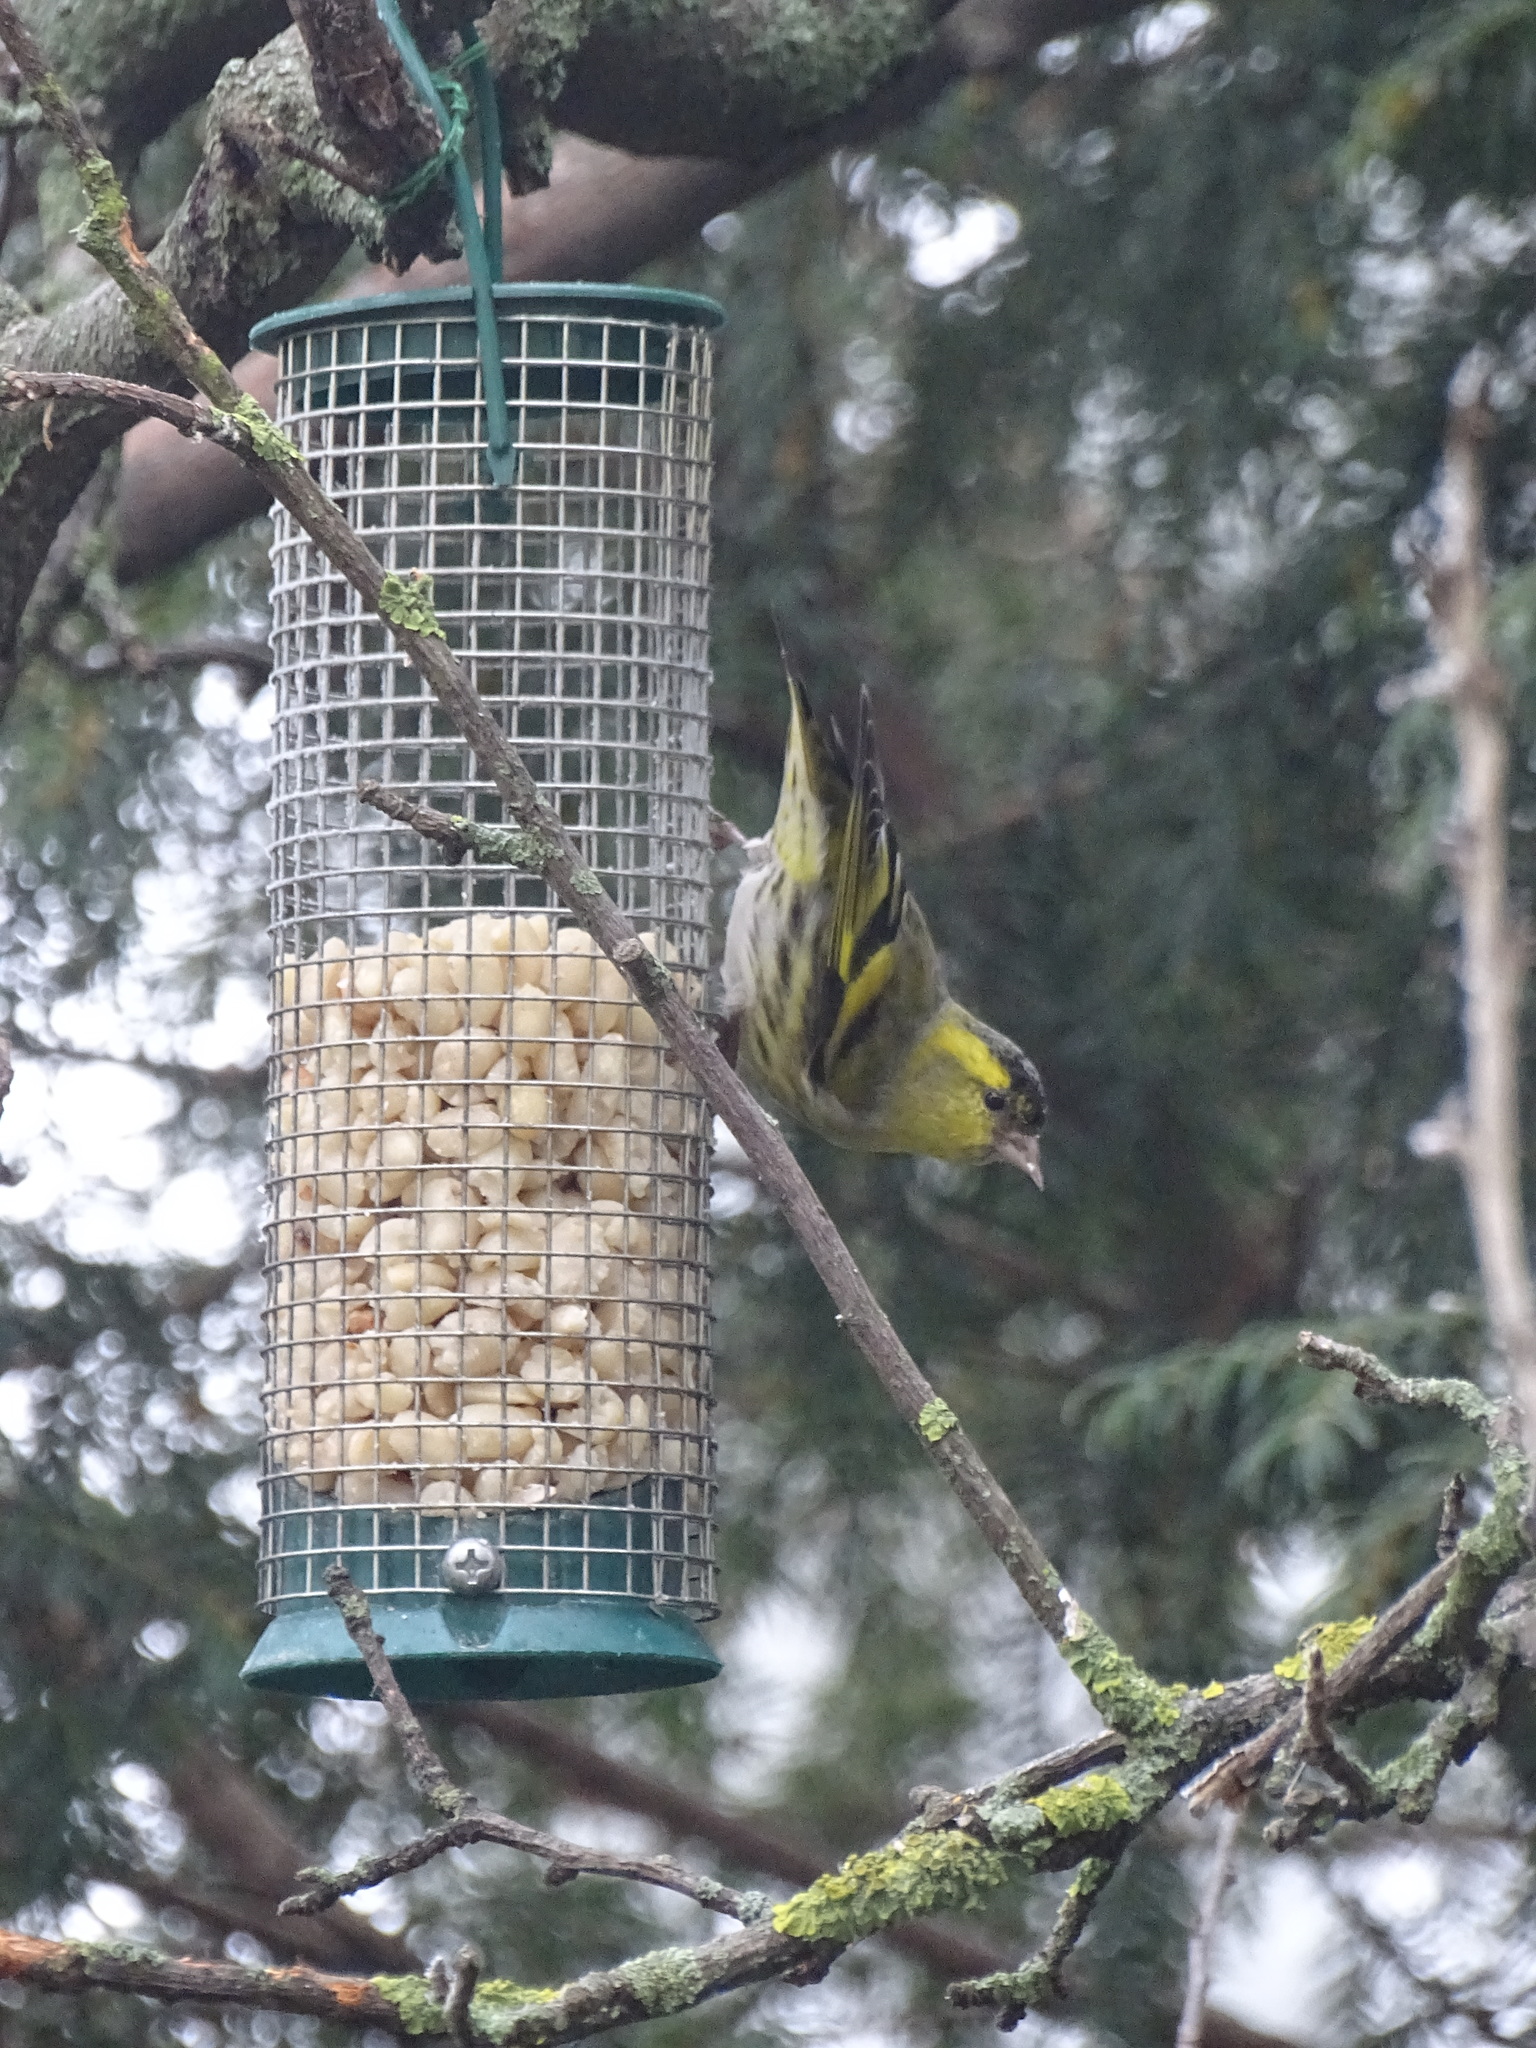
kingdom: Animalia
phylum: Chordata
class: Aves
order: Passeriformes
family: Fringillidae
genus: Spinus
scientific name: Spinus spinus
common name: Eurasian siskin
